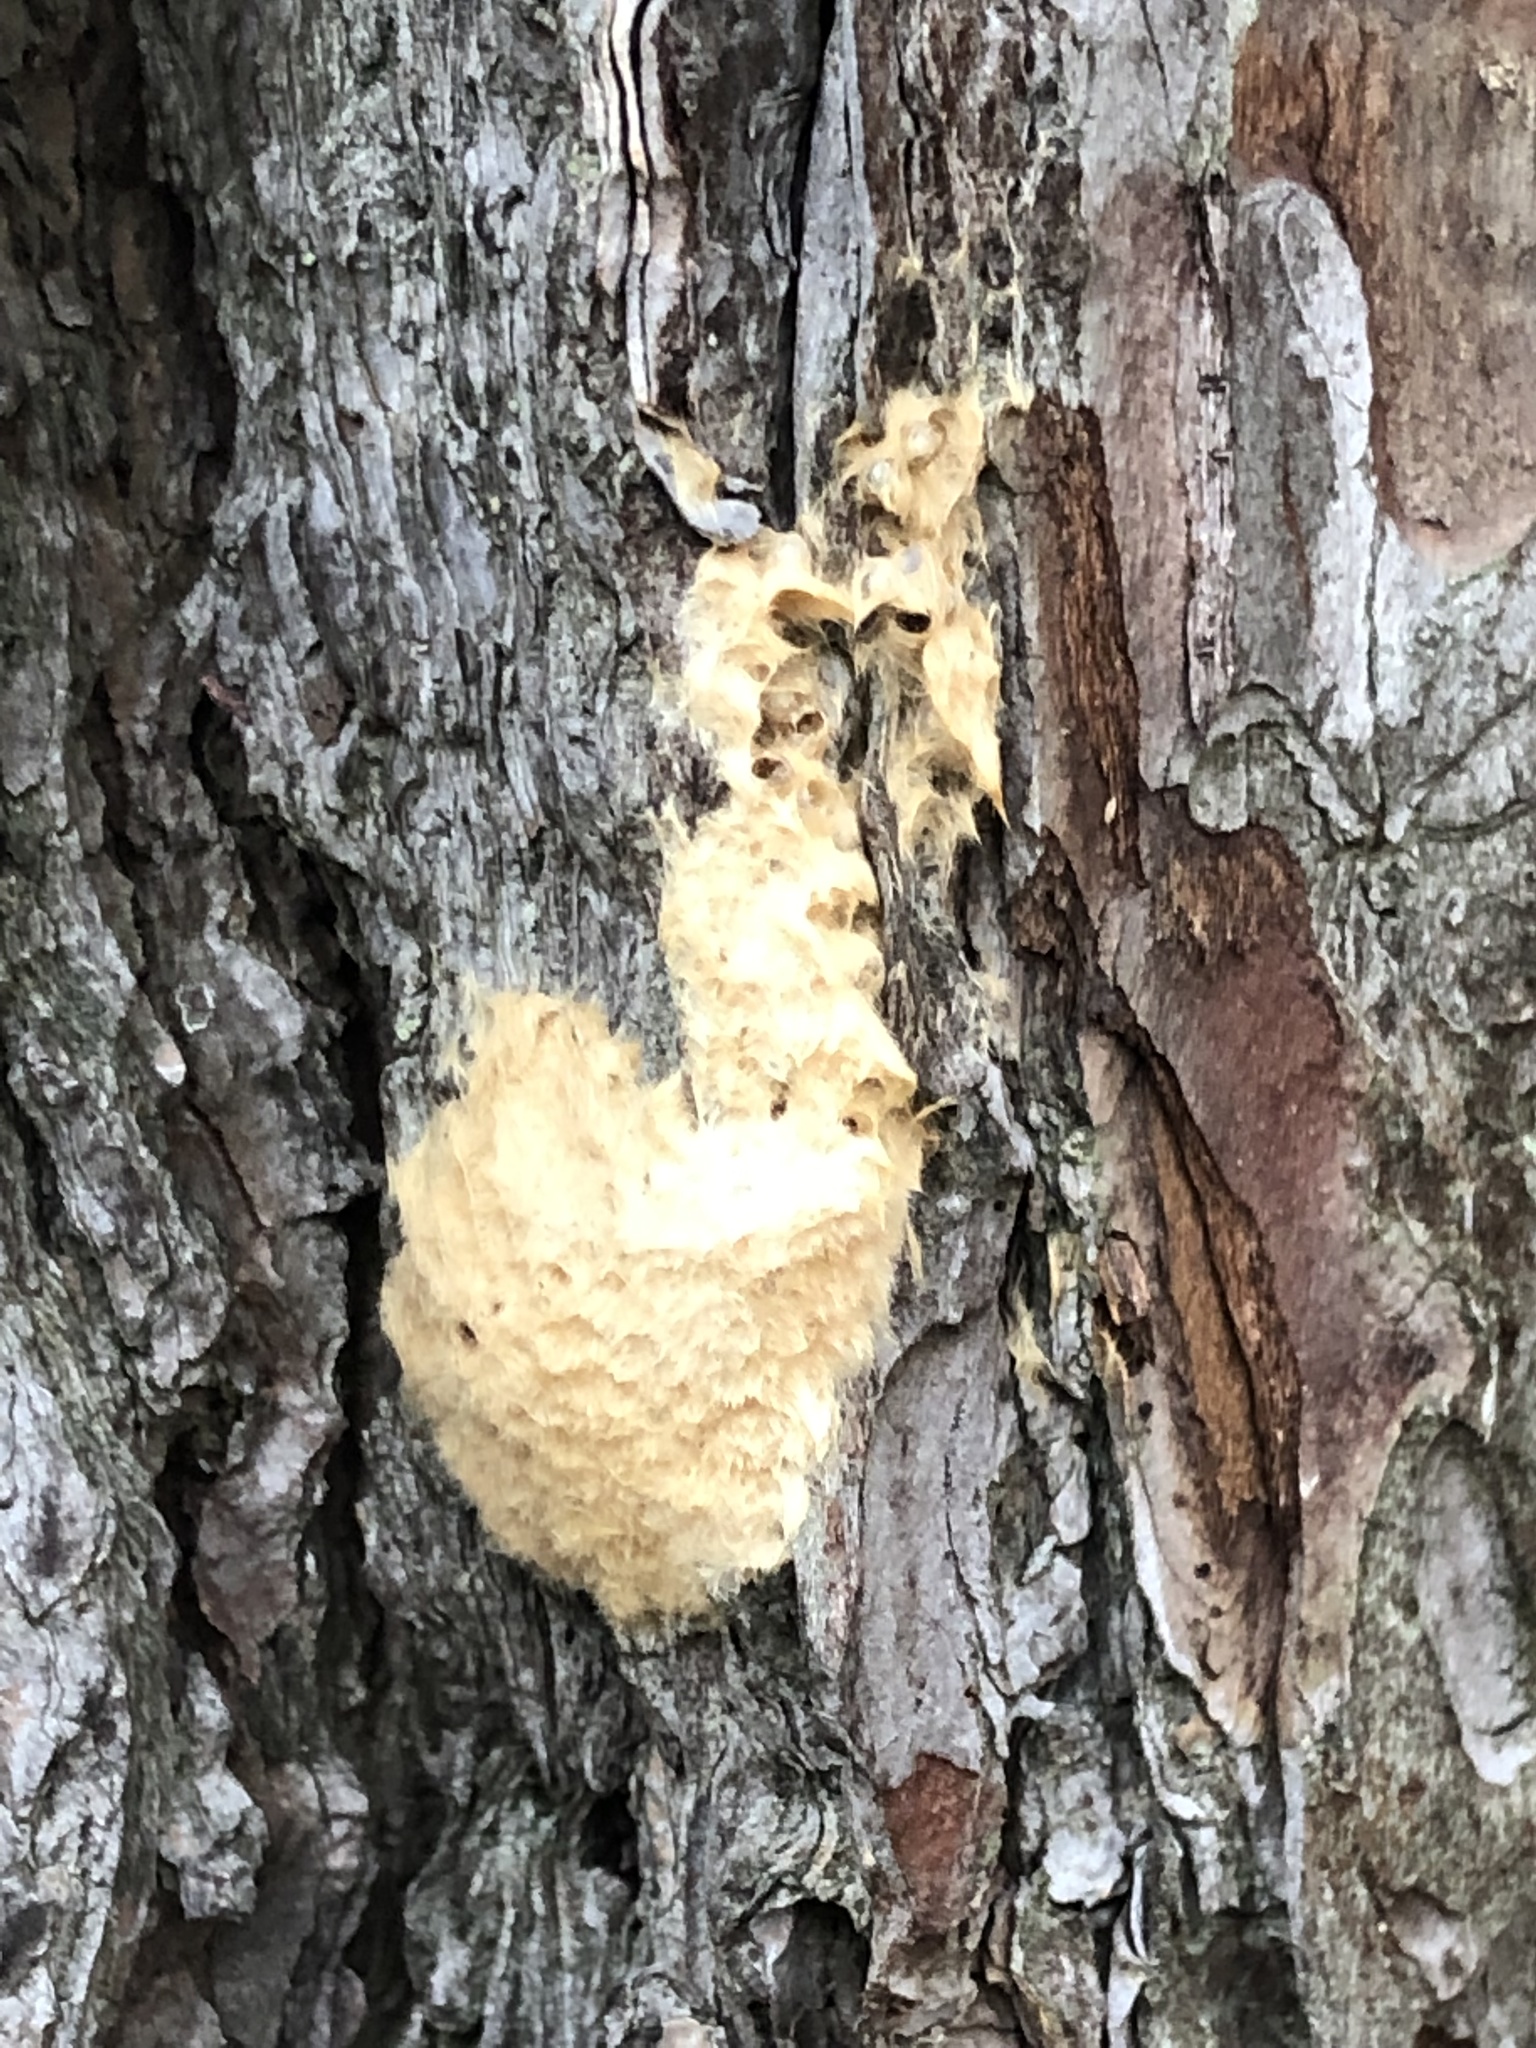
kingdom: Animalia
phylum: Arthropoda
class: Insecta
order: Lepidoptera
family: Erebidae
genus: Lymantria
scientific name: Lymantria dispar
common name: Gypsy moth
